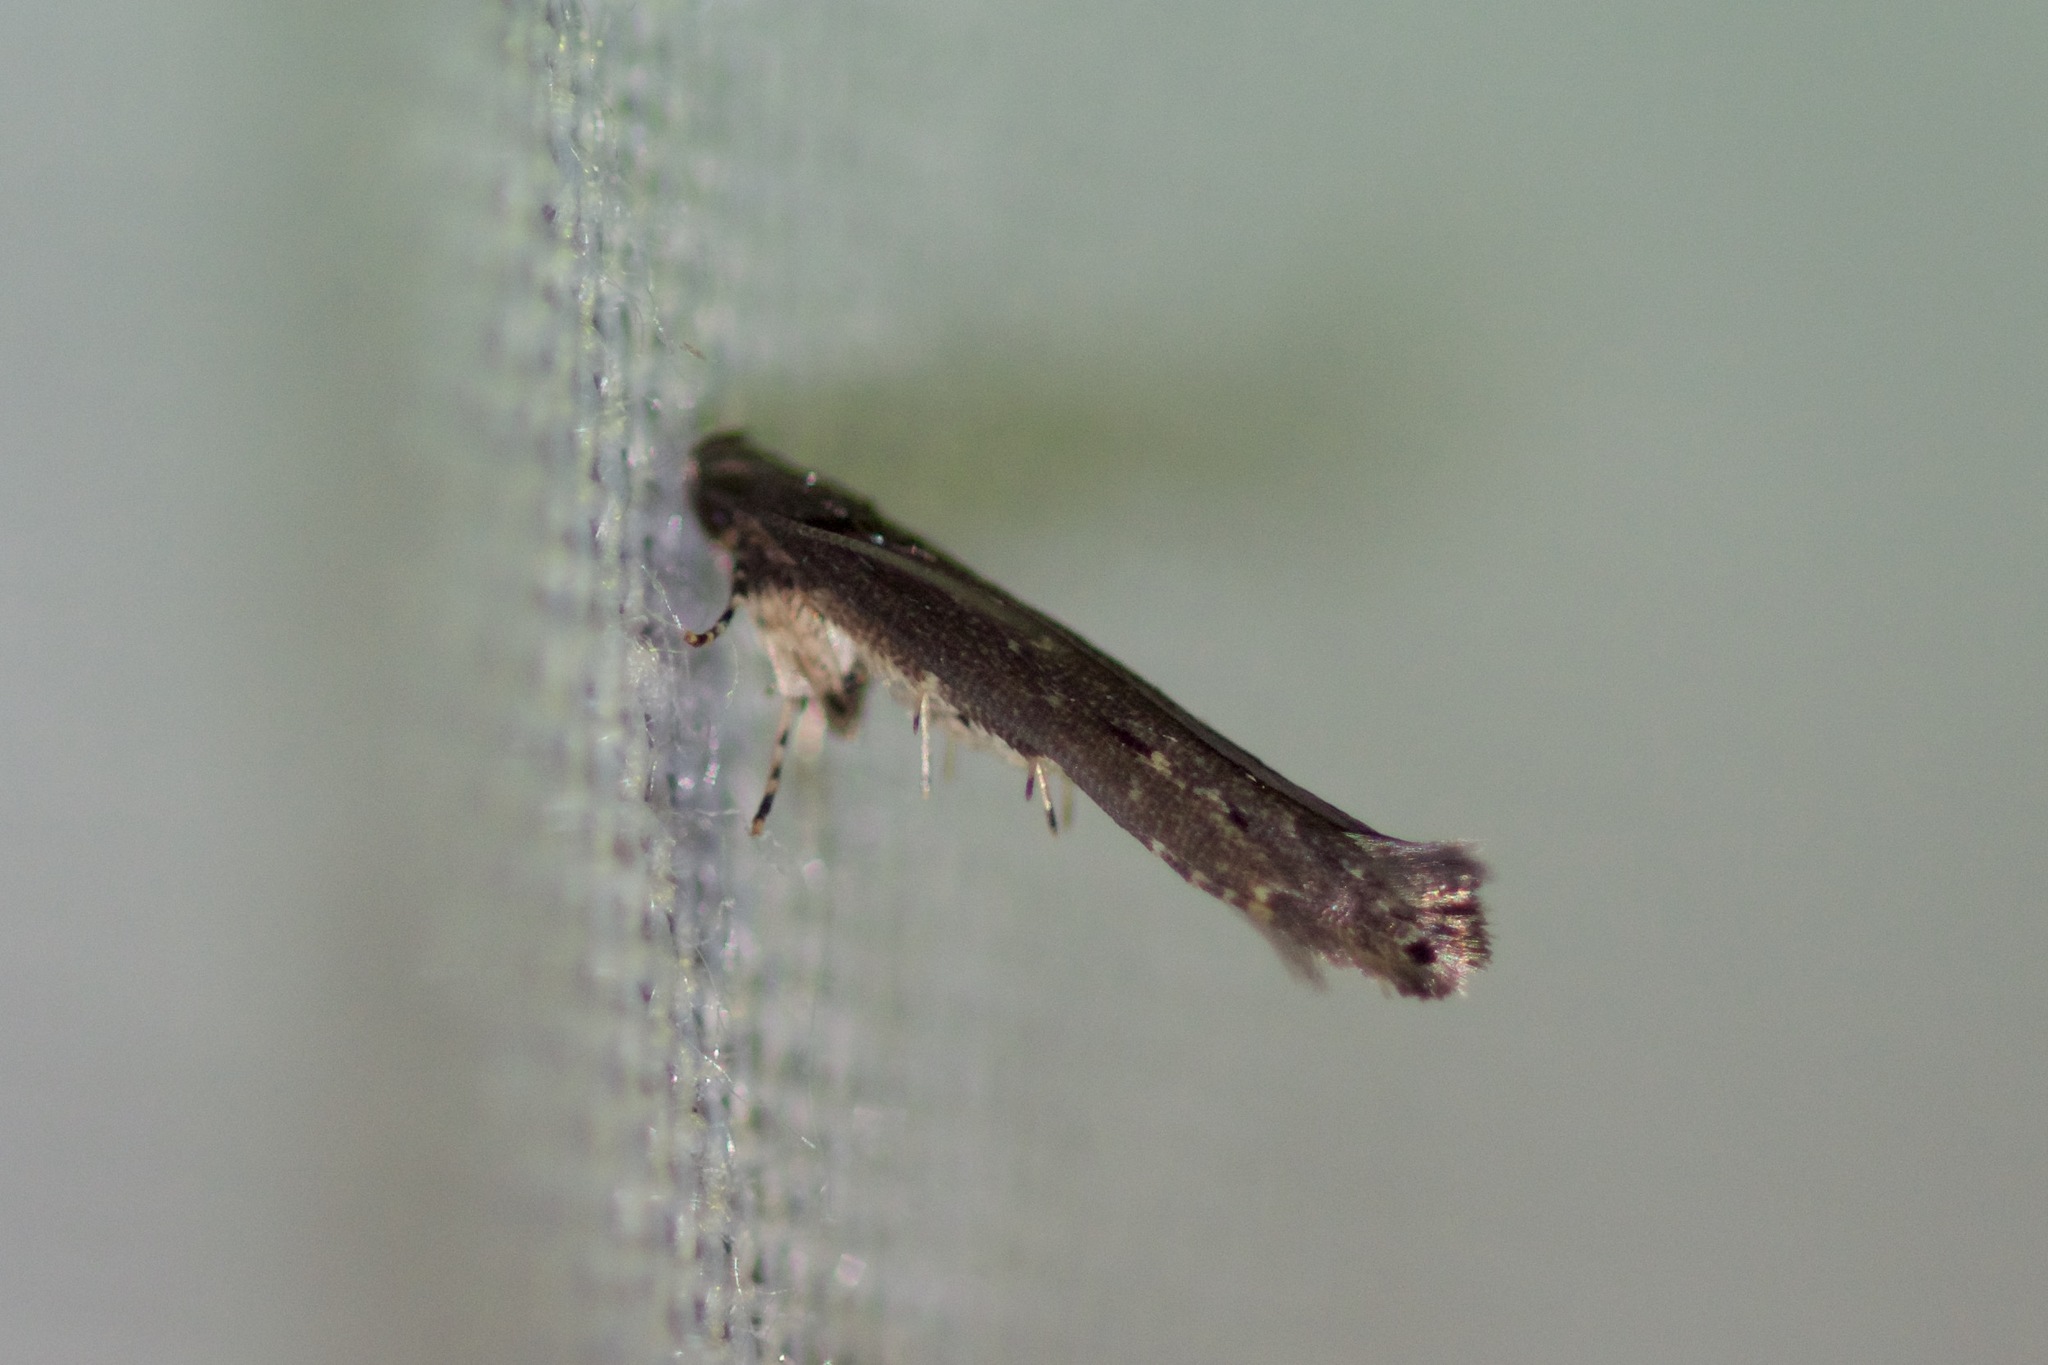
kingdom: Animalia
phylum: Arthropoda
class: Insecta
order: Lepidoptera
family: Cosmopterigidae
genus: Ithome
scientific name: Ithome erransella
